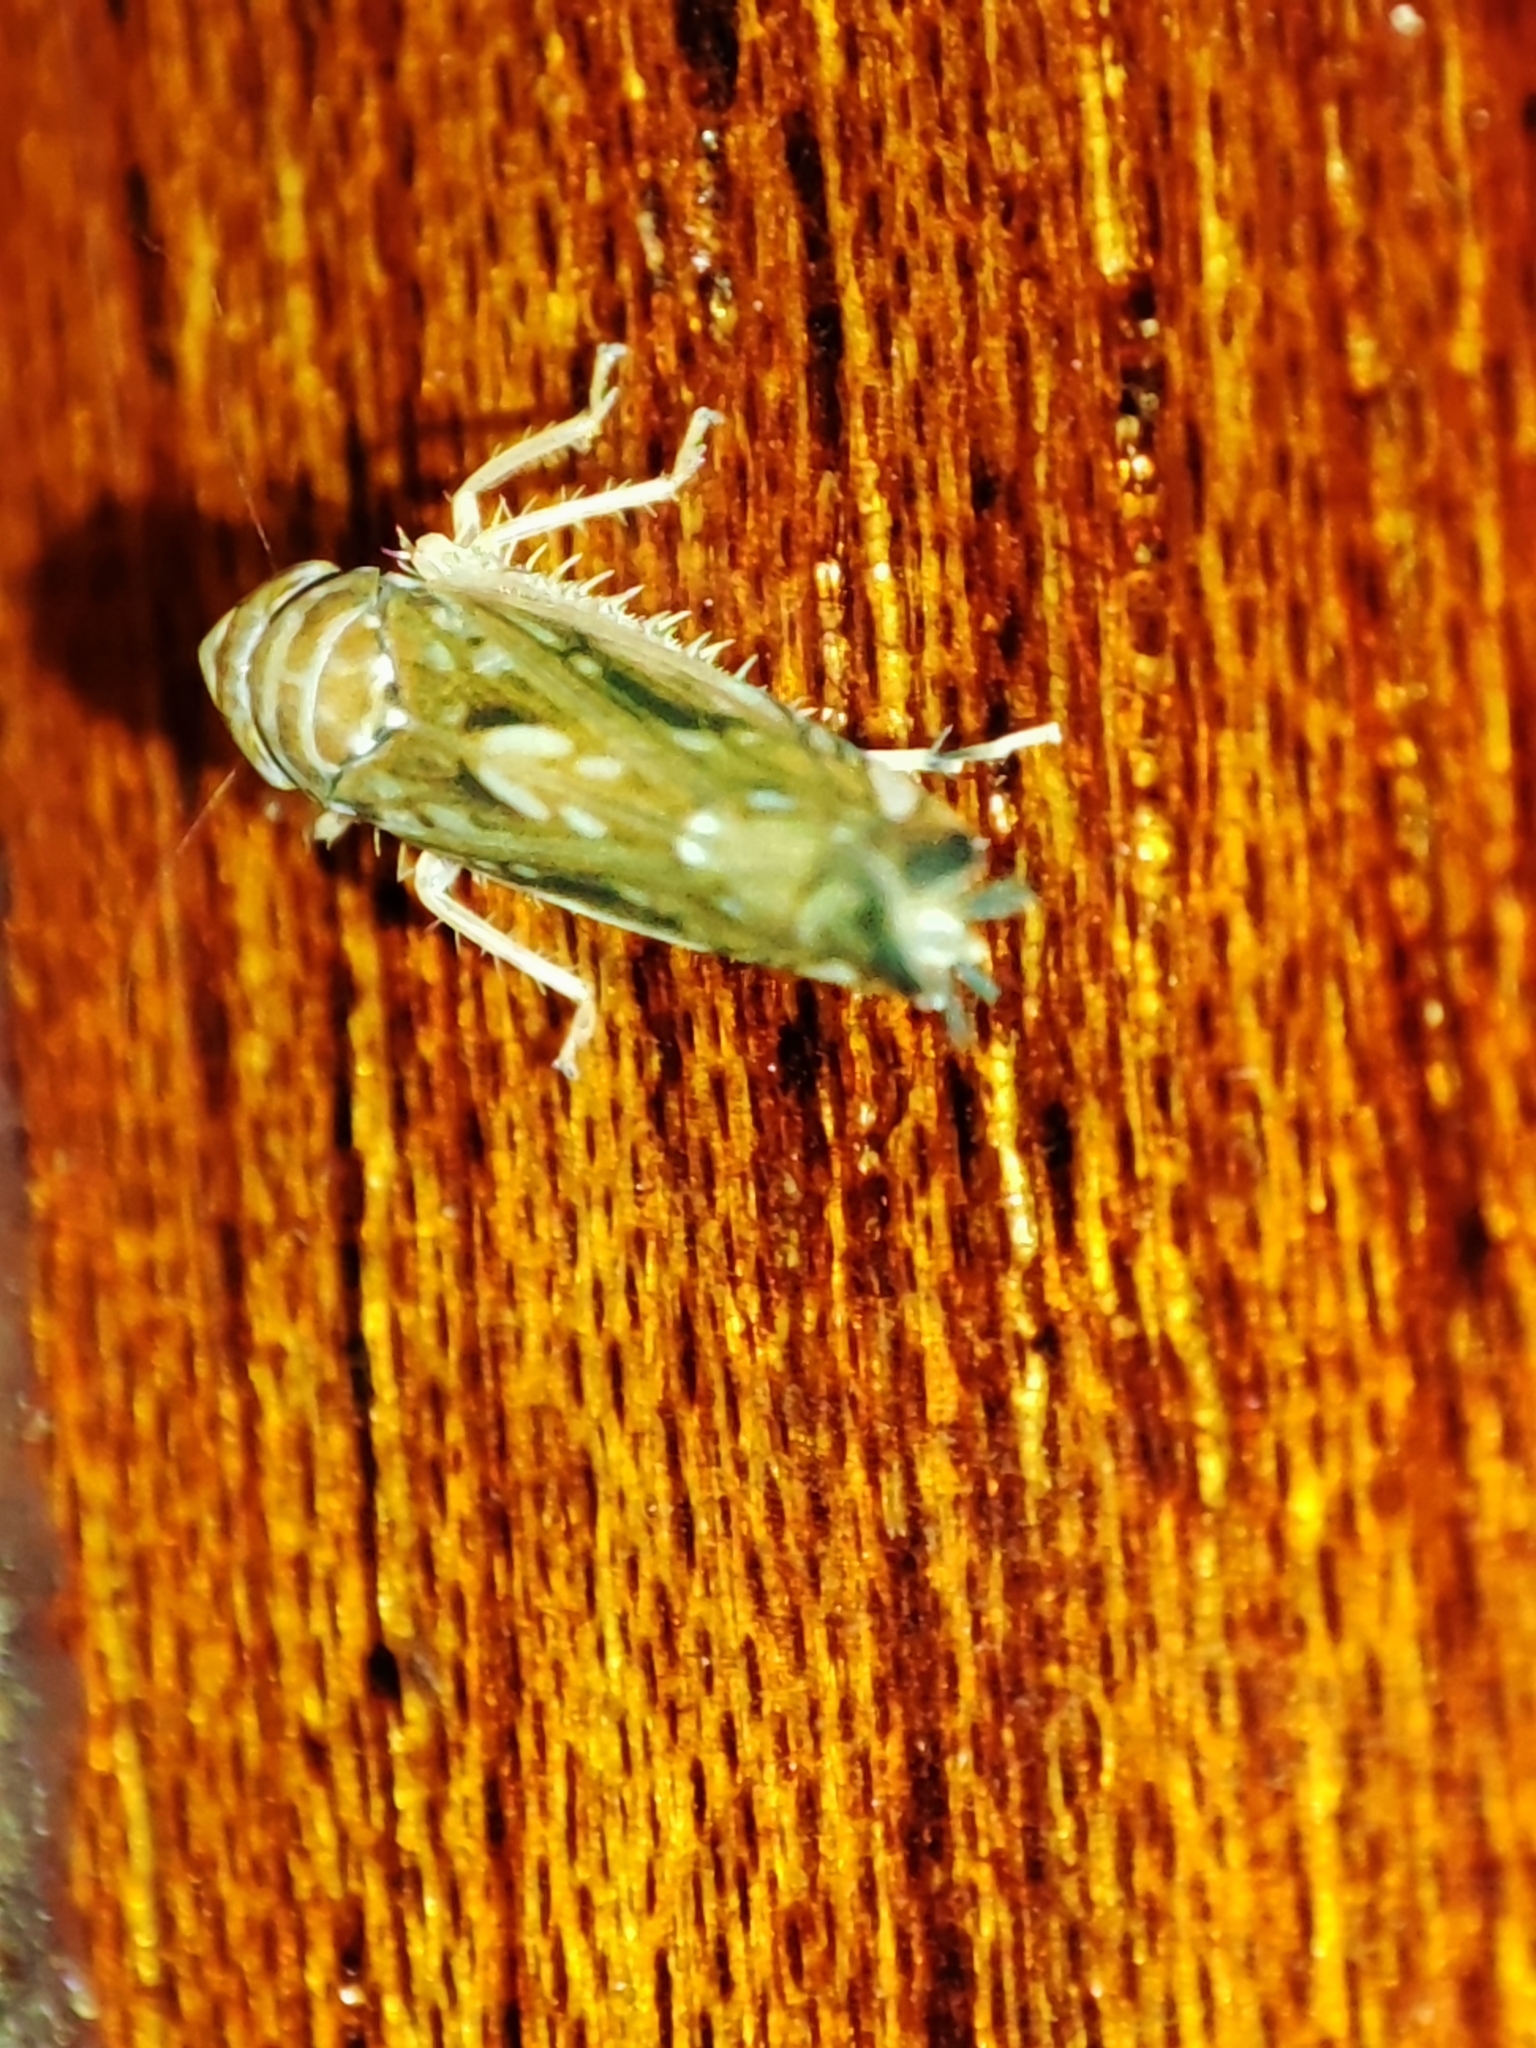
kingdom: Animalia
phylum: Arthropoda
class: Insecta
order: Hemiptera
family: Cicadellidae
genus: Scaphoideus
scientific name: Scaphoideus titanus
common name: American grapevine leafhopper
